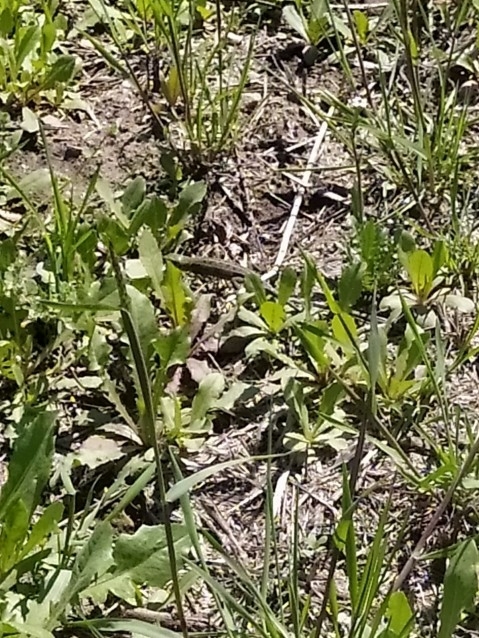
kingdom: Animalia
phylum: Chordata
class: Squamata
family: Lacertidae
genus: Lacerta
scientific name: Lacerta agilis
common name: Sand lizard
